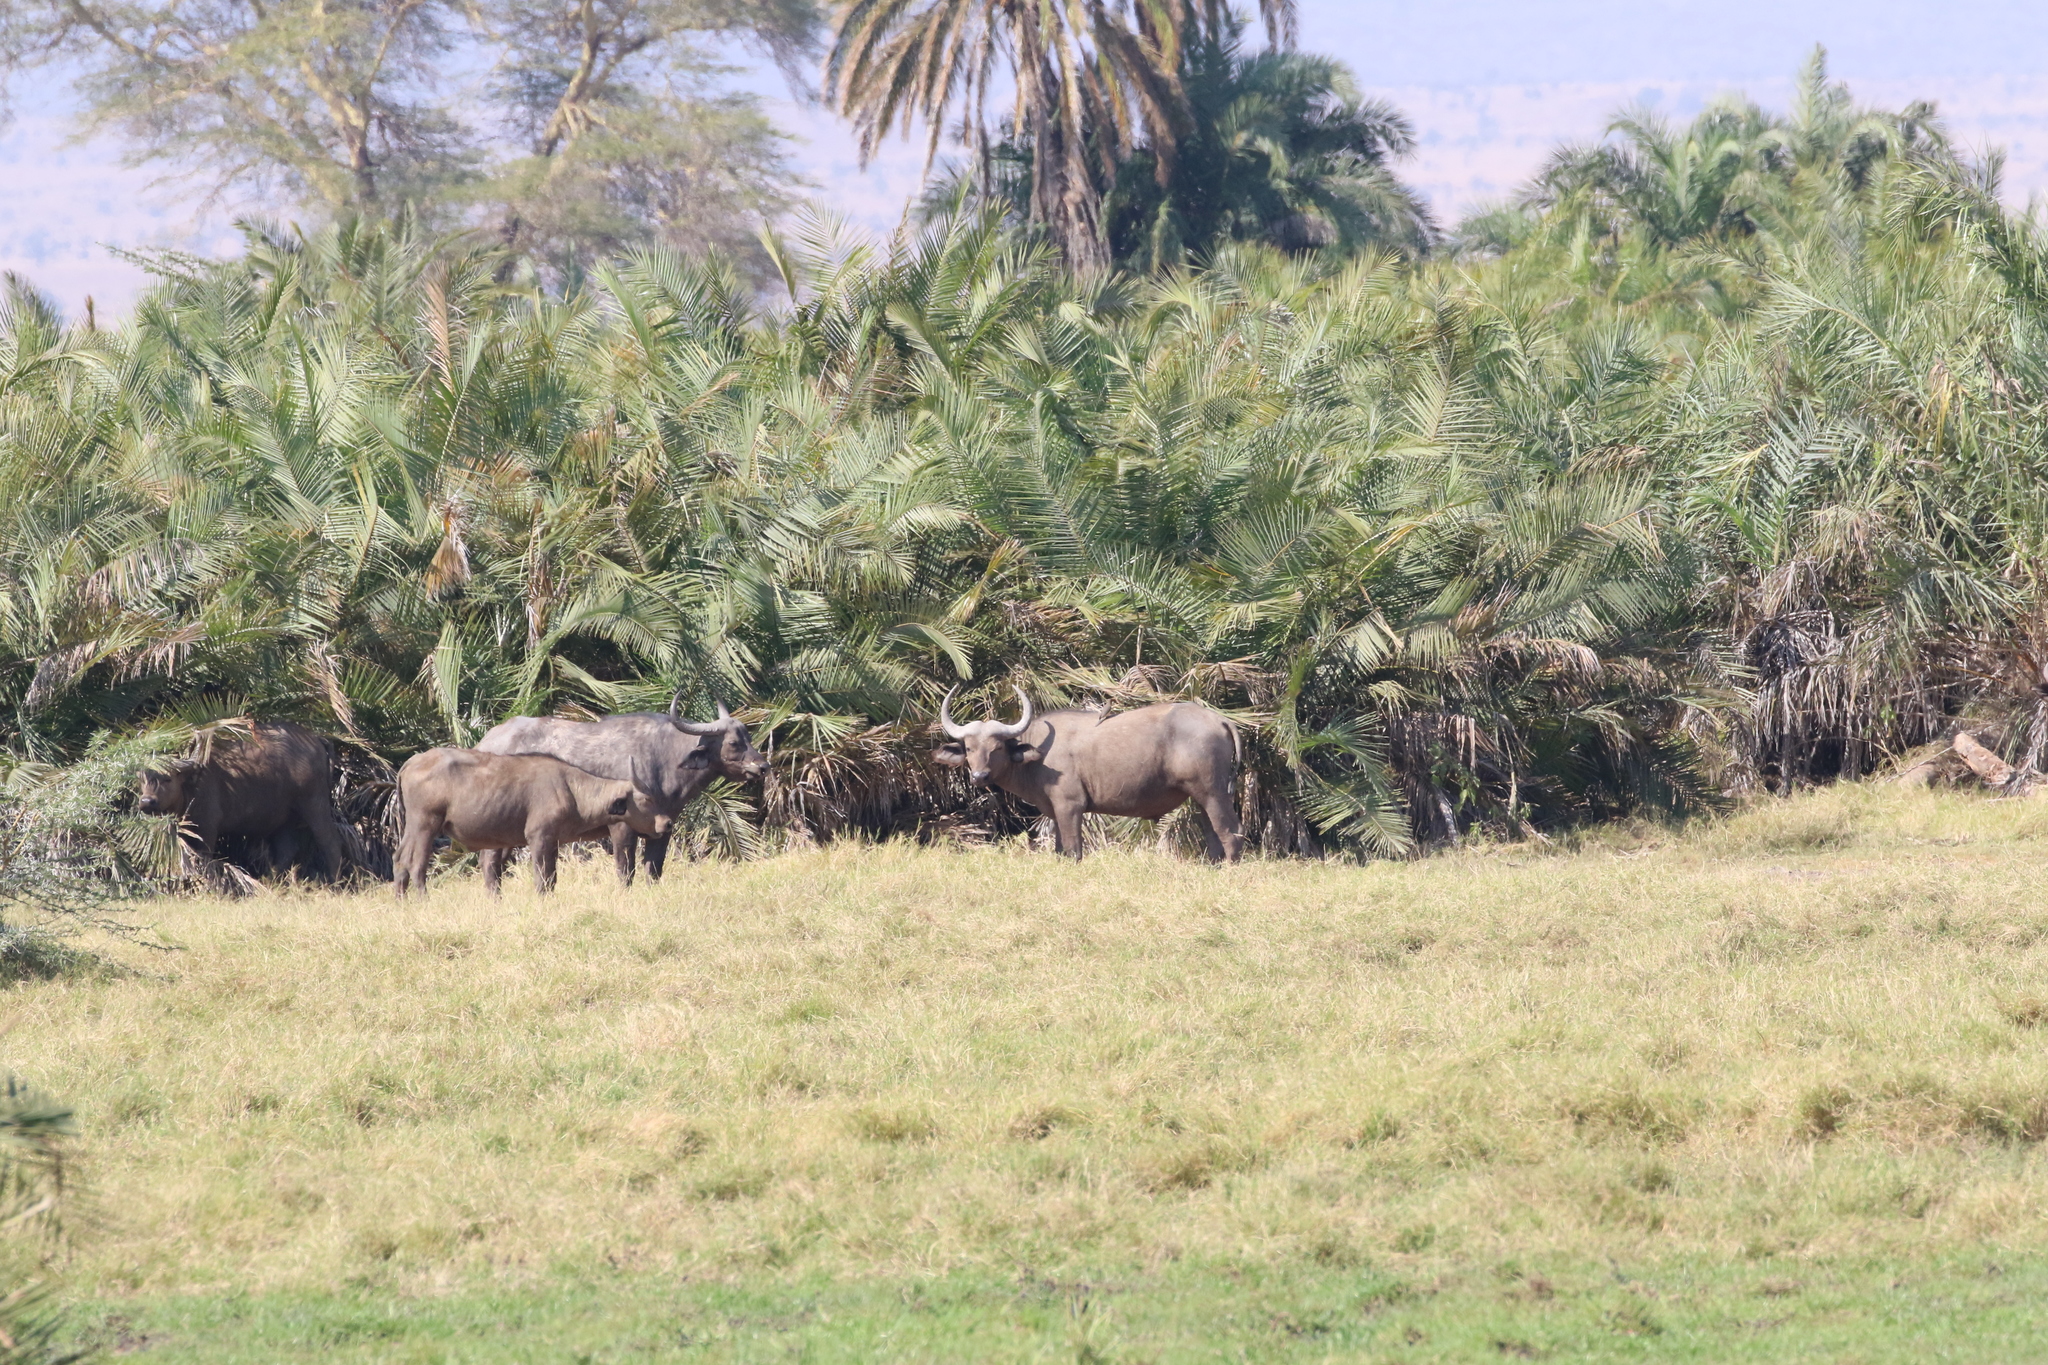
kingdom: Animalia
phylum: Chordata
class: Mammalia
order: Artiodactyla
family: Bovidae
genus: Syncerus
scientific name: Syncerus caffer
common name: African buffalo
